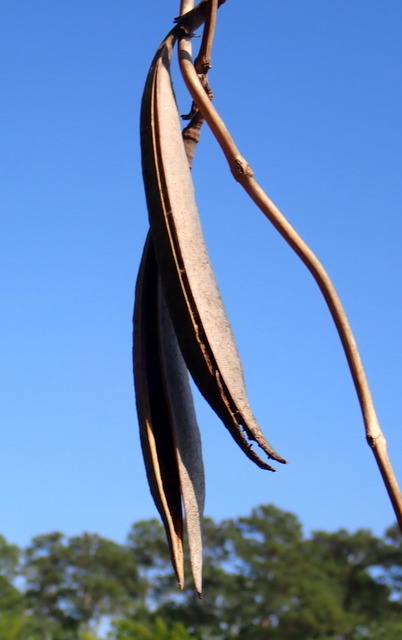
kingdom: Plantae
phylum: Tracheophyta
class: Magnoliopsida
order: Lamiales
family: Bignoniaceae
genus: Campsis
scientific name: Campsis radicans
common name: Trumpet-creeper
